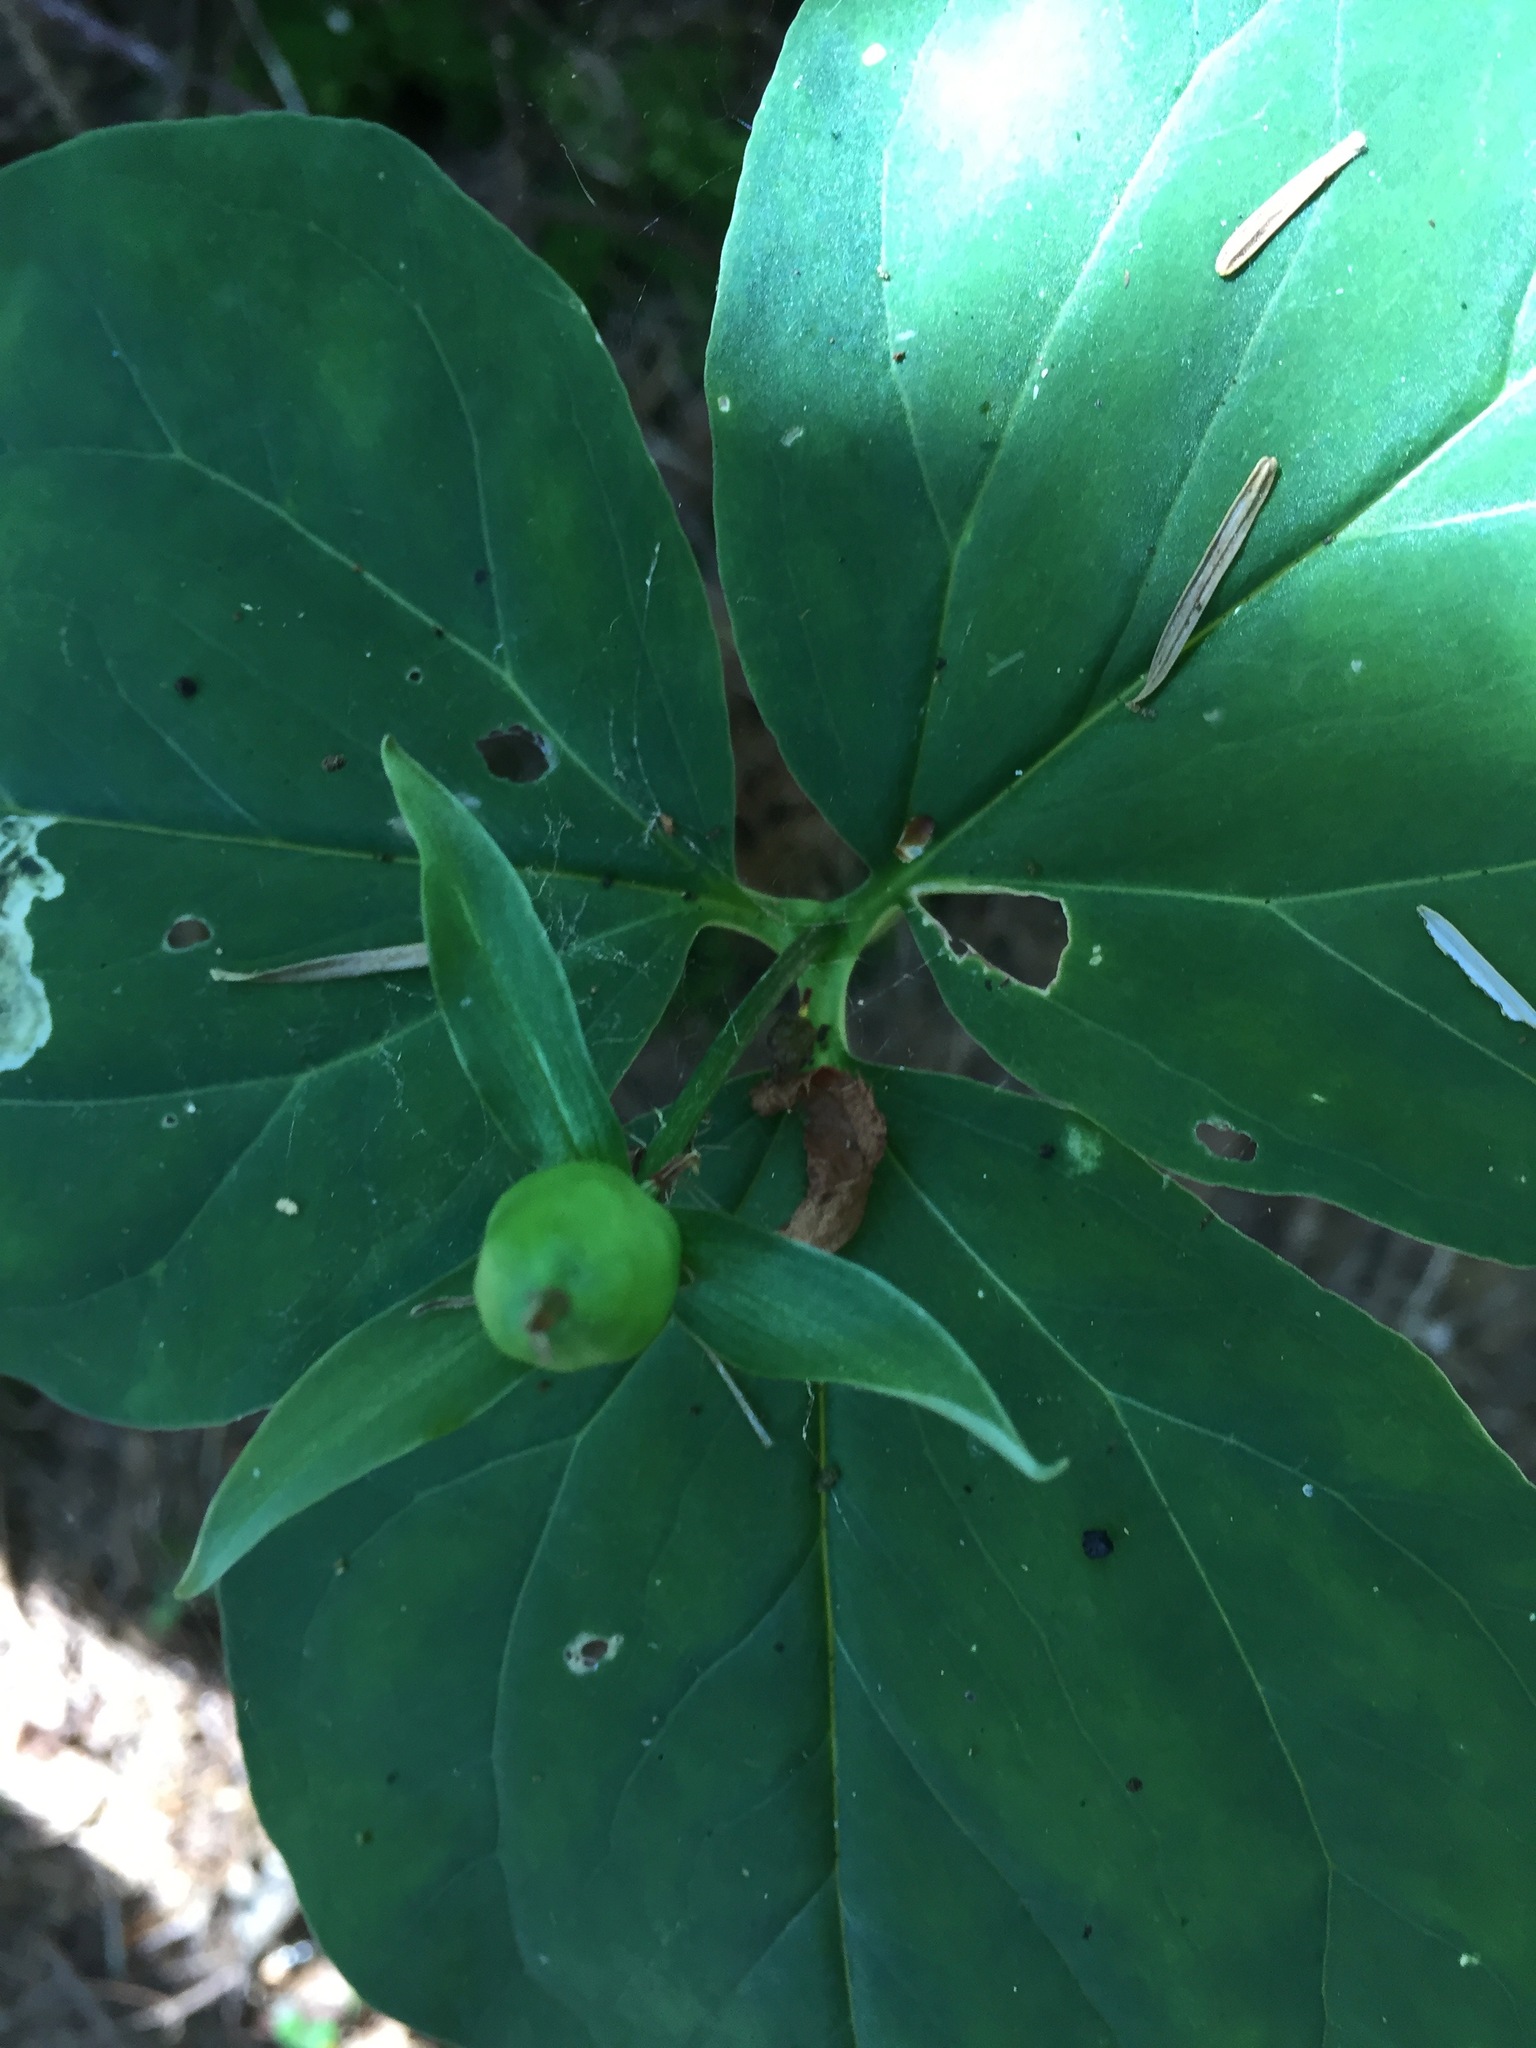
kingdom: Plantae
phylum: Tracheophyta
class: Liliopsida
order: Liliales
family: Melanthiaceae
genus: Trillium
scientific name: Trillium undulatum
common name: Paint trillium
